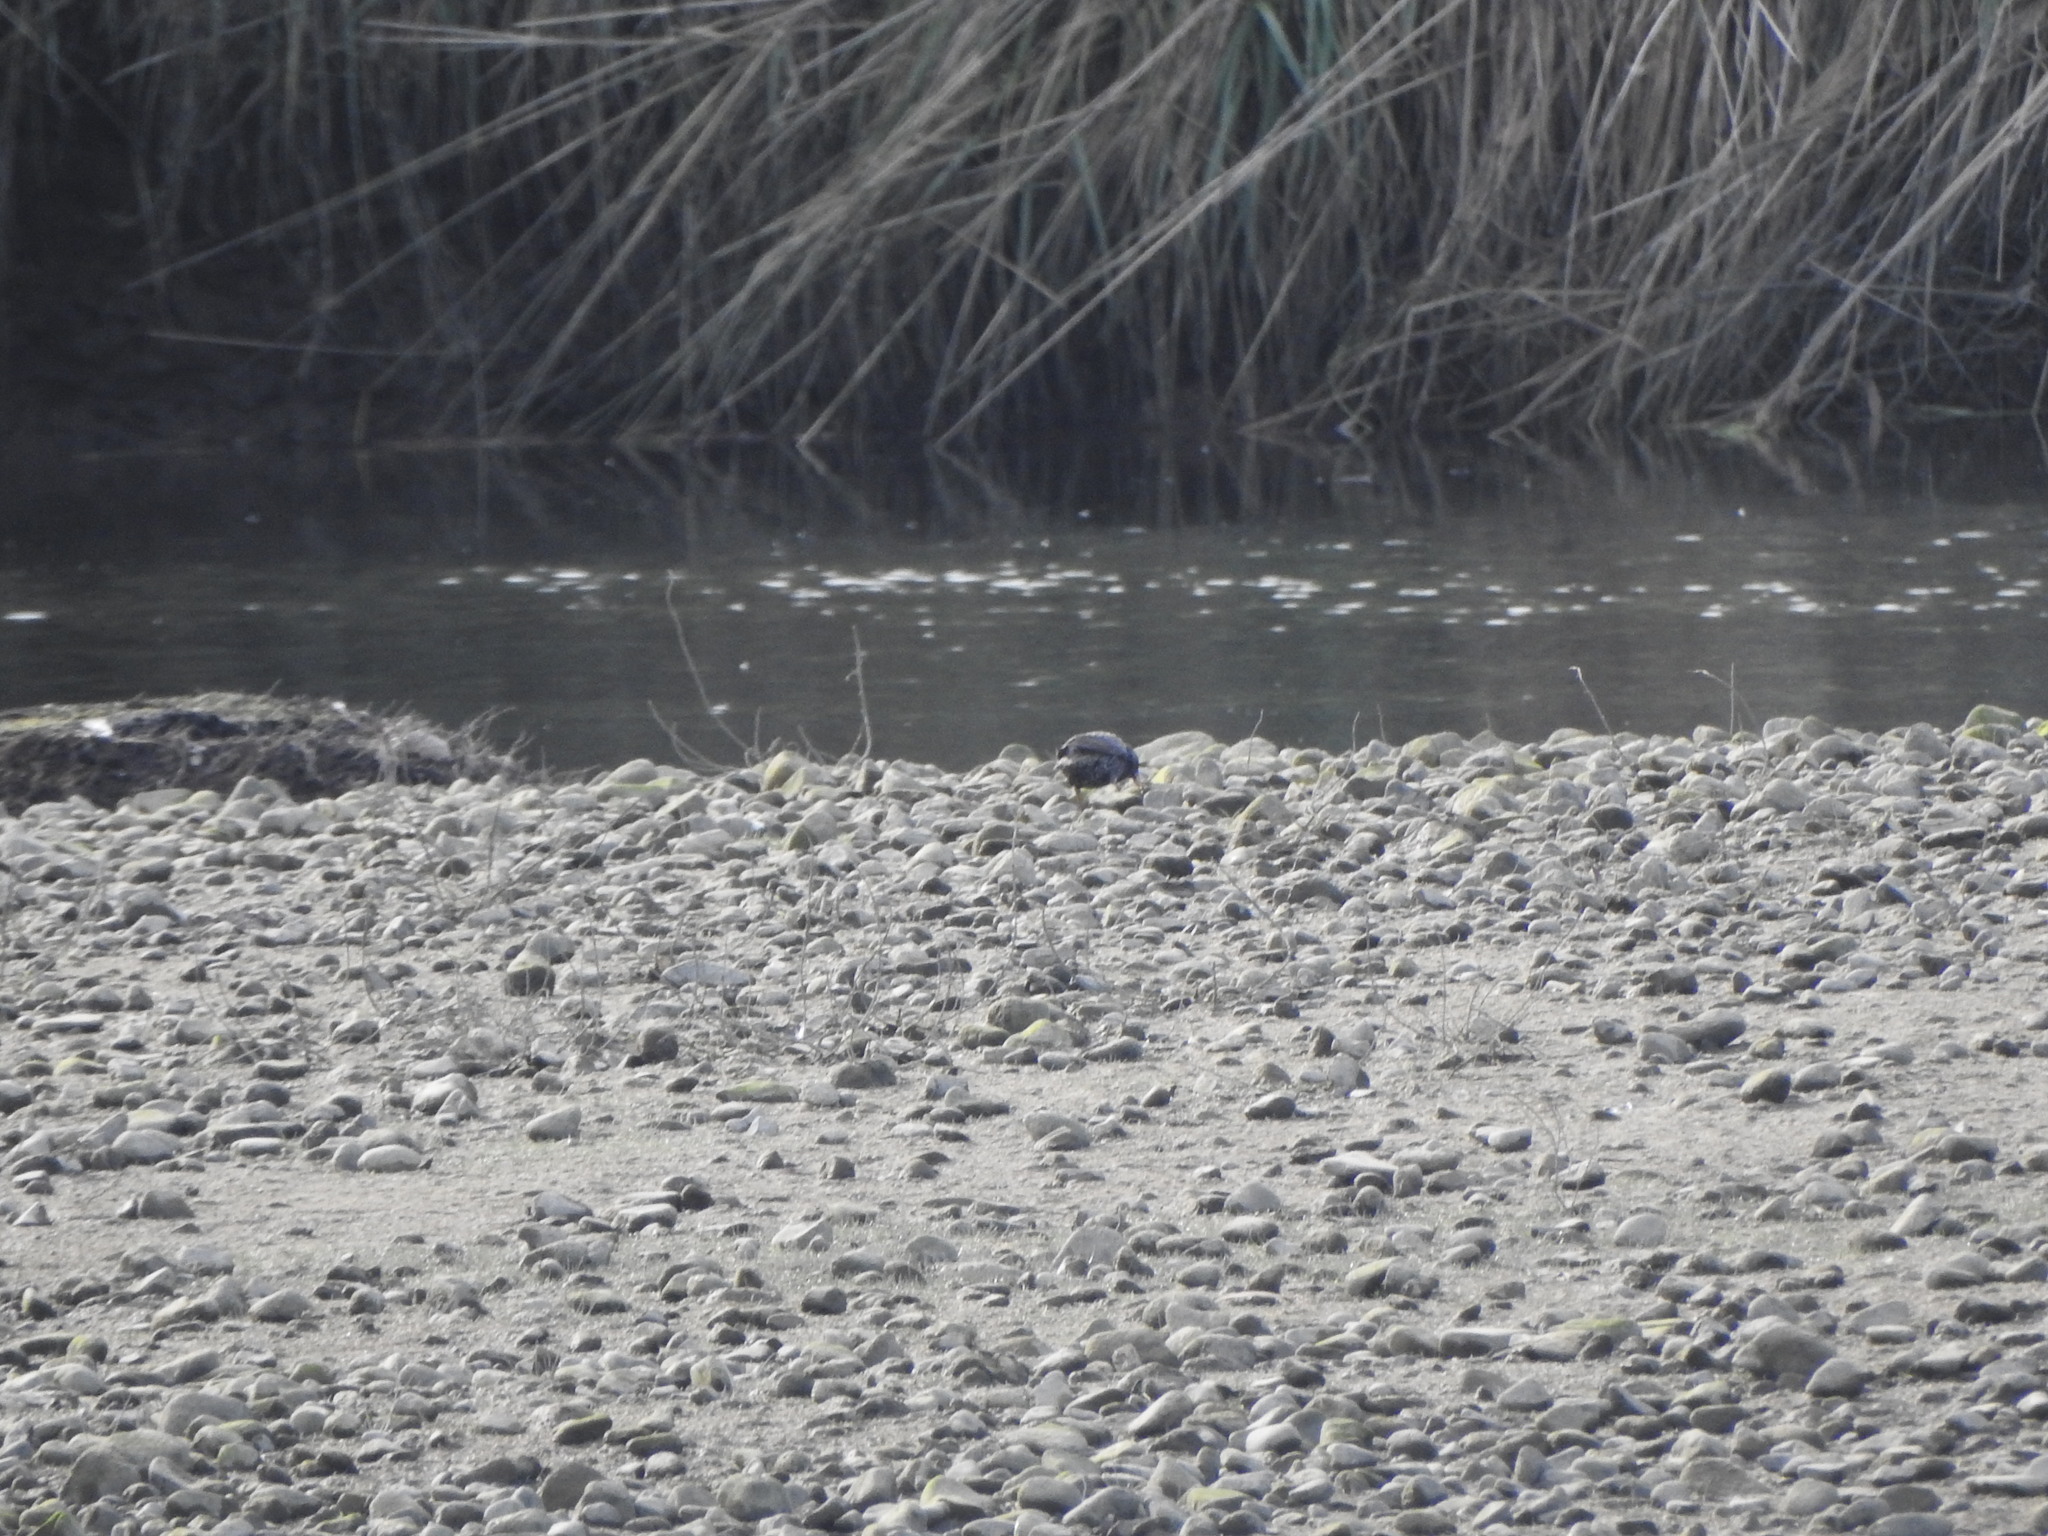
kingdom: Animalia
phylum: Chordata
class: Aves
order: Passeriformes
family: Sturnidae
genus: Sturnus
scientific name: Sturnus vulgaris
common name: Common starling
